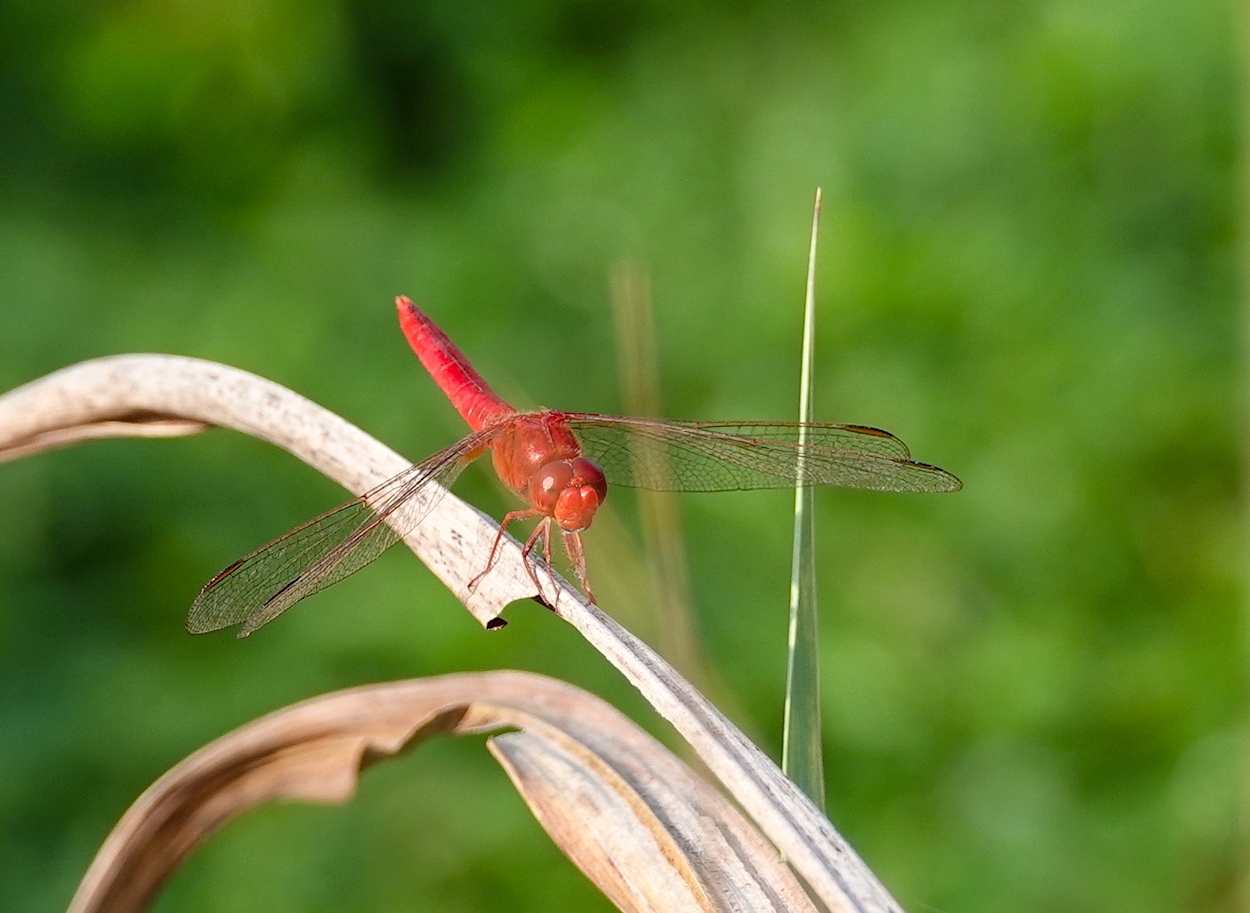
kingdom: Animalia
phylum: Arthropoda
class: Insecta
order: Odonata
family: Libellulidae
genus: Crocothemis
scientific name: Crocothemis servilia
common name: Scarlet skimmer
